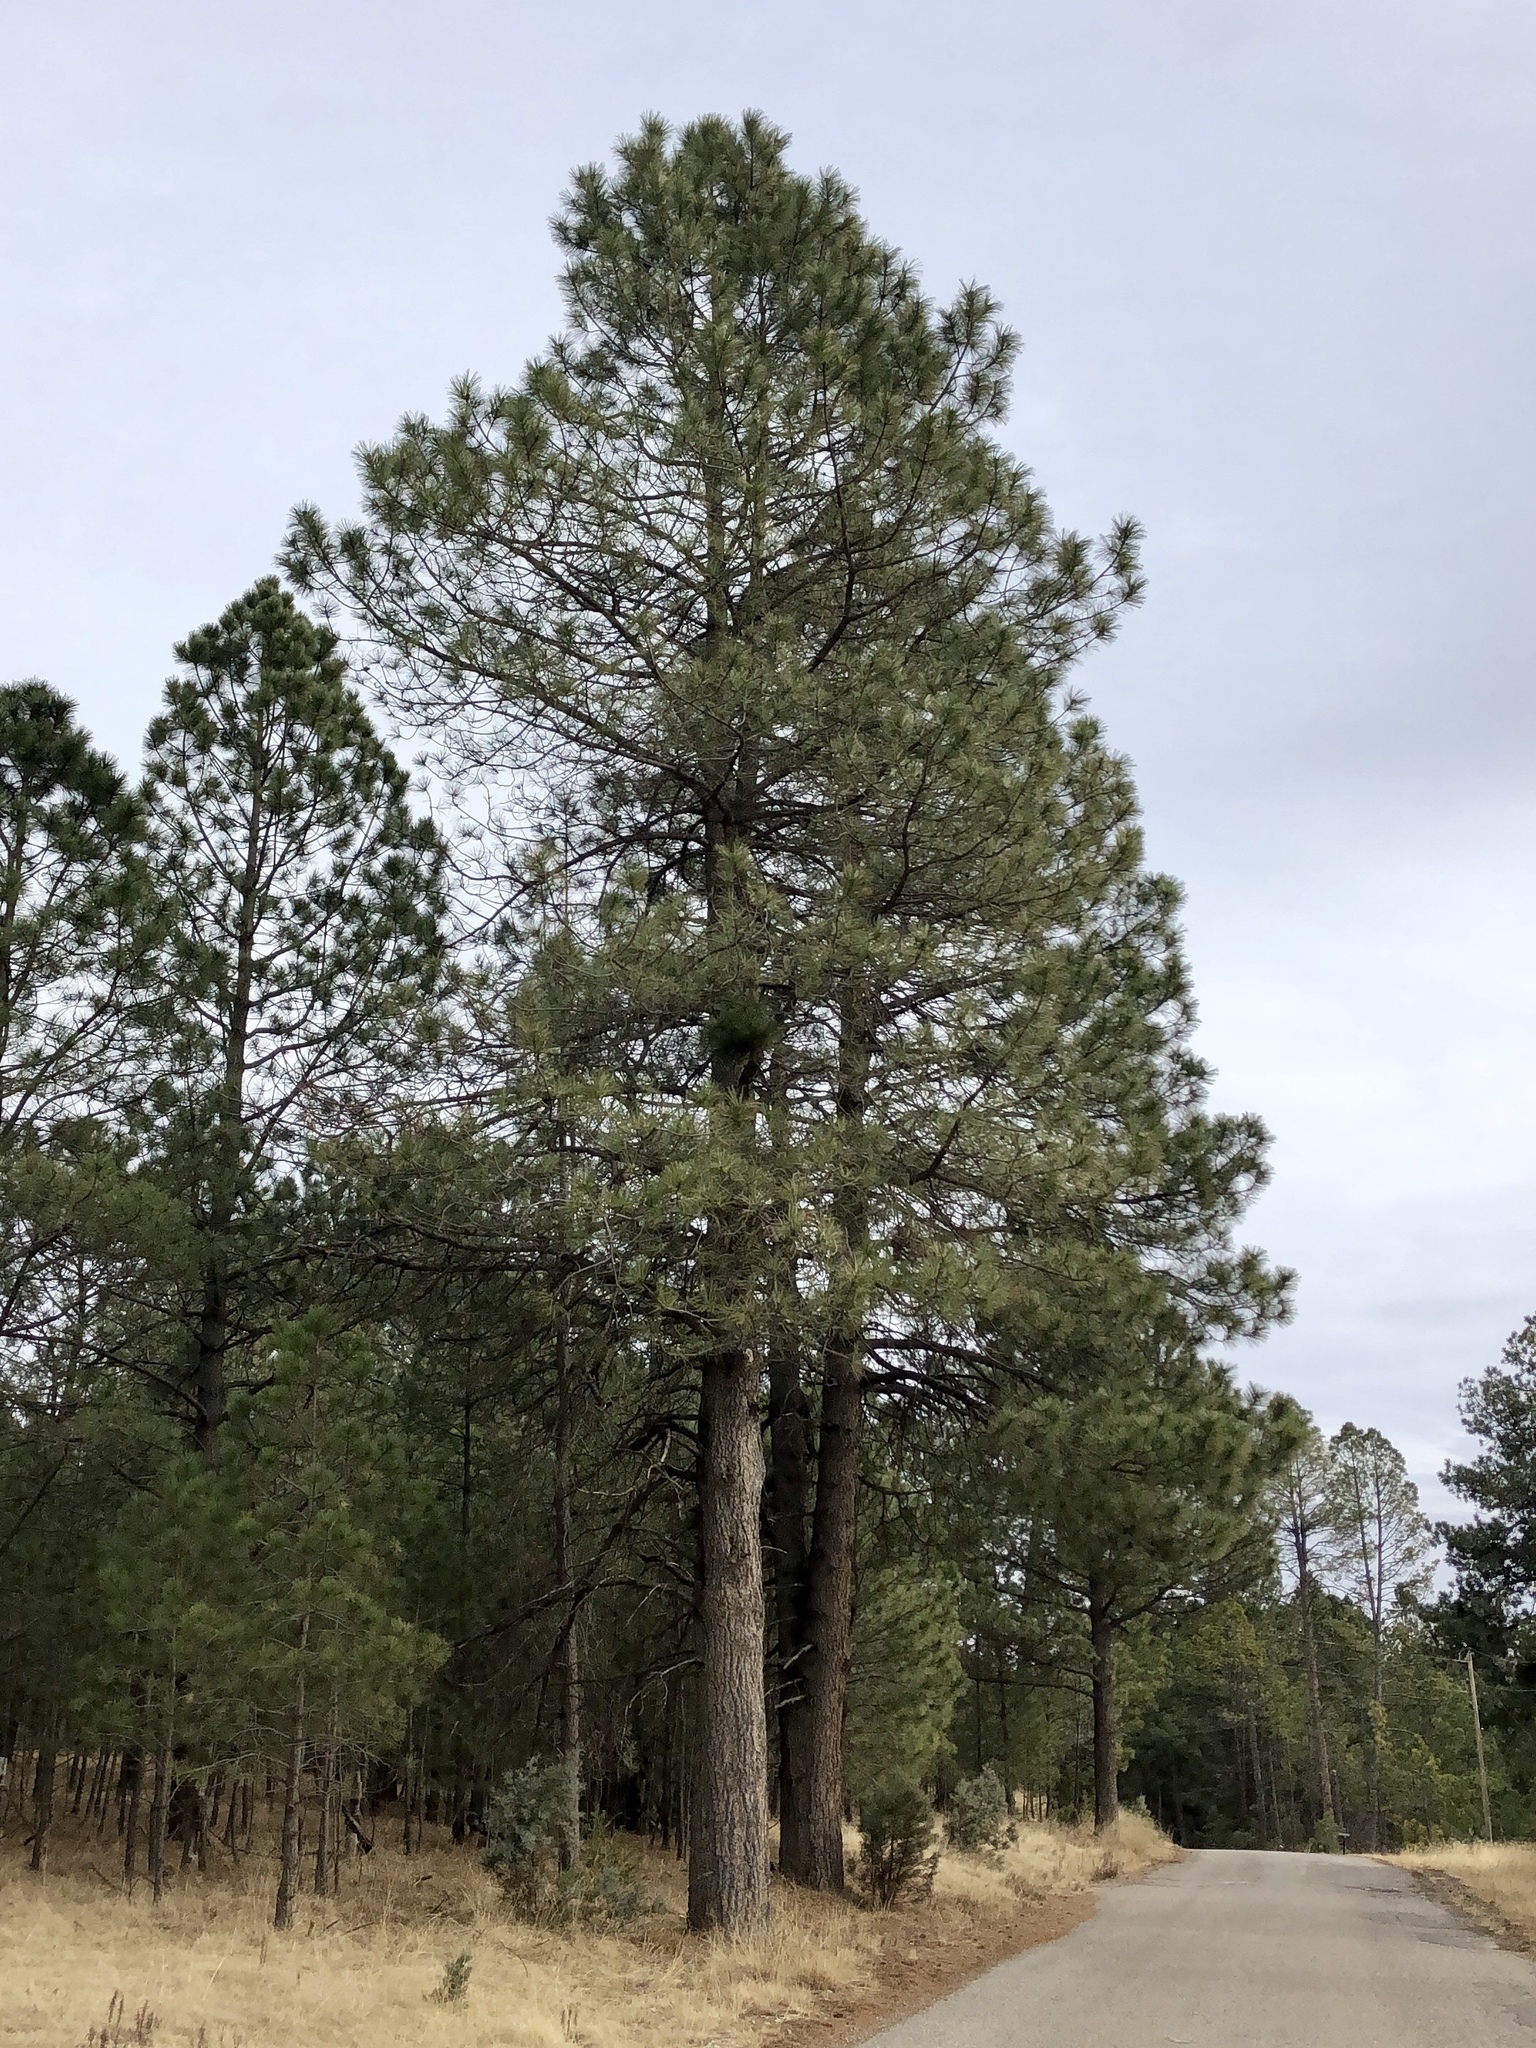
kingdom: Plantae
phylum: Tracheophyta
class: Pinopsida
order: Pinales
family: Pinaceae
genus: Pinus
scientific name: Pinus ponderosa
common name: Western yellow-pine
